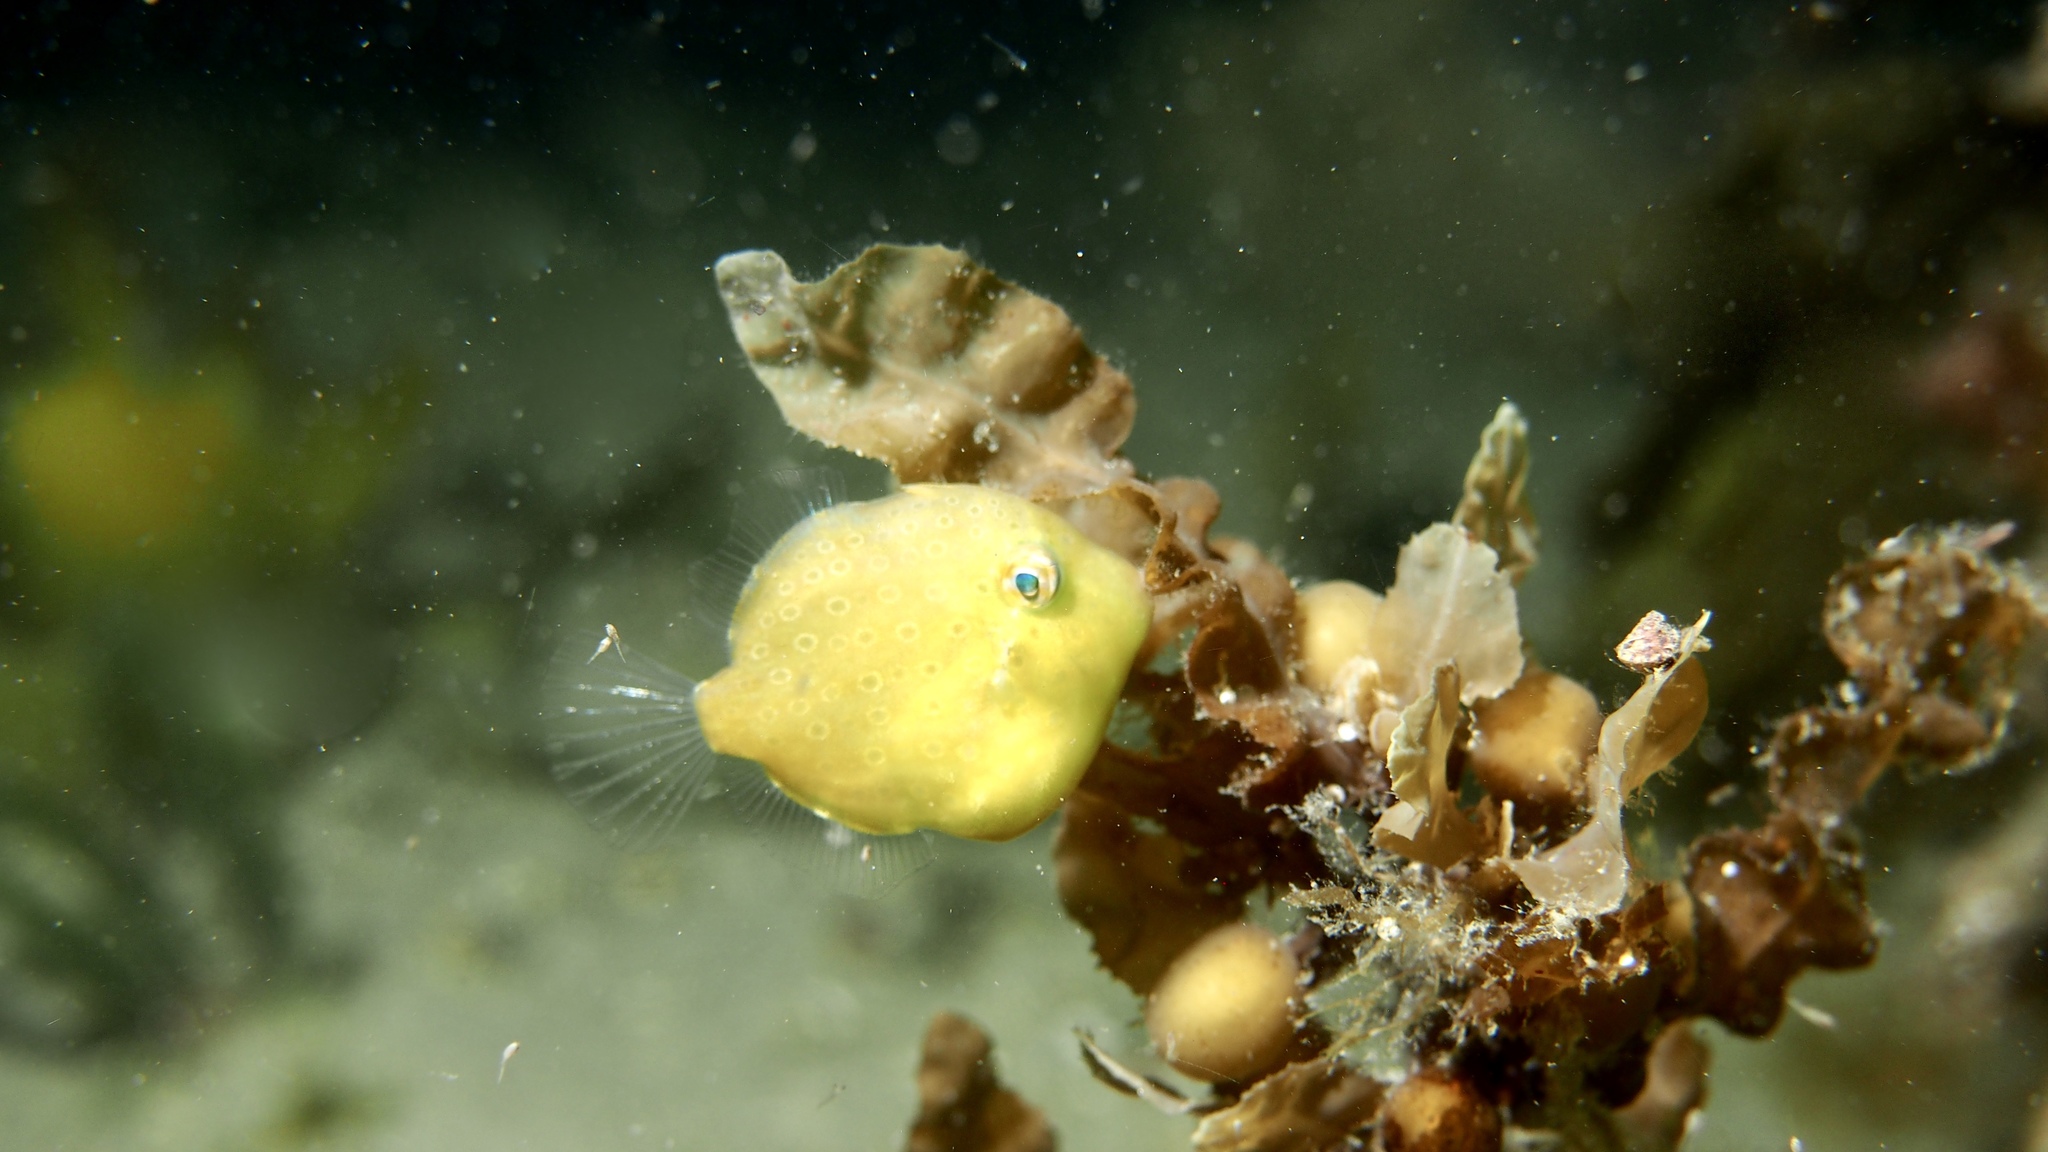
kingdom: Animalia
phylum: Chordata
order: Tetraodontiformes
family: Monacanthidae
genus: Brachaluteres
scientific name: Brachaluteres jacksonianus
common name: Pigmy leatherjacket
